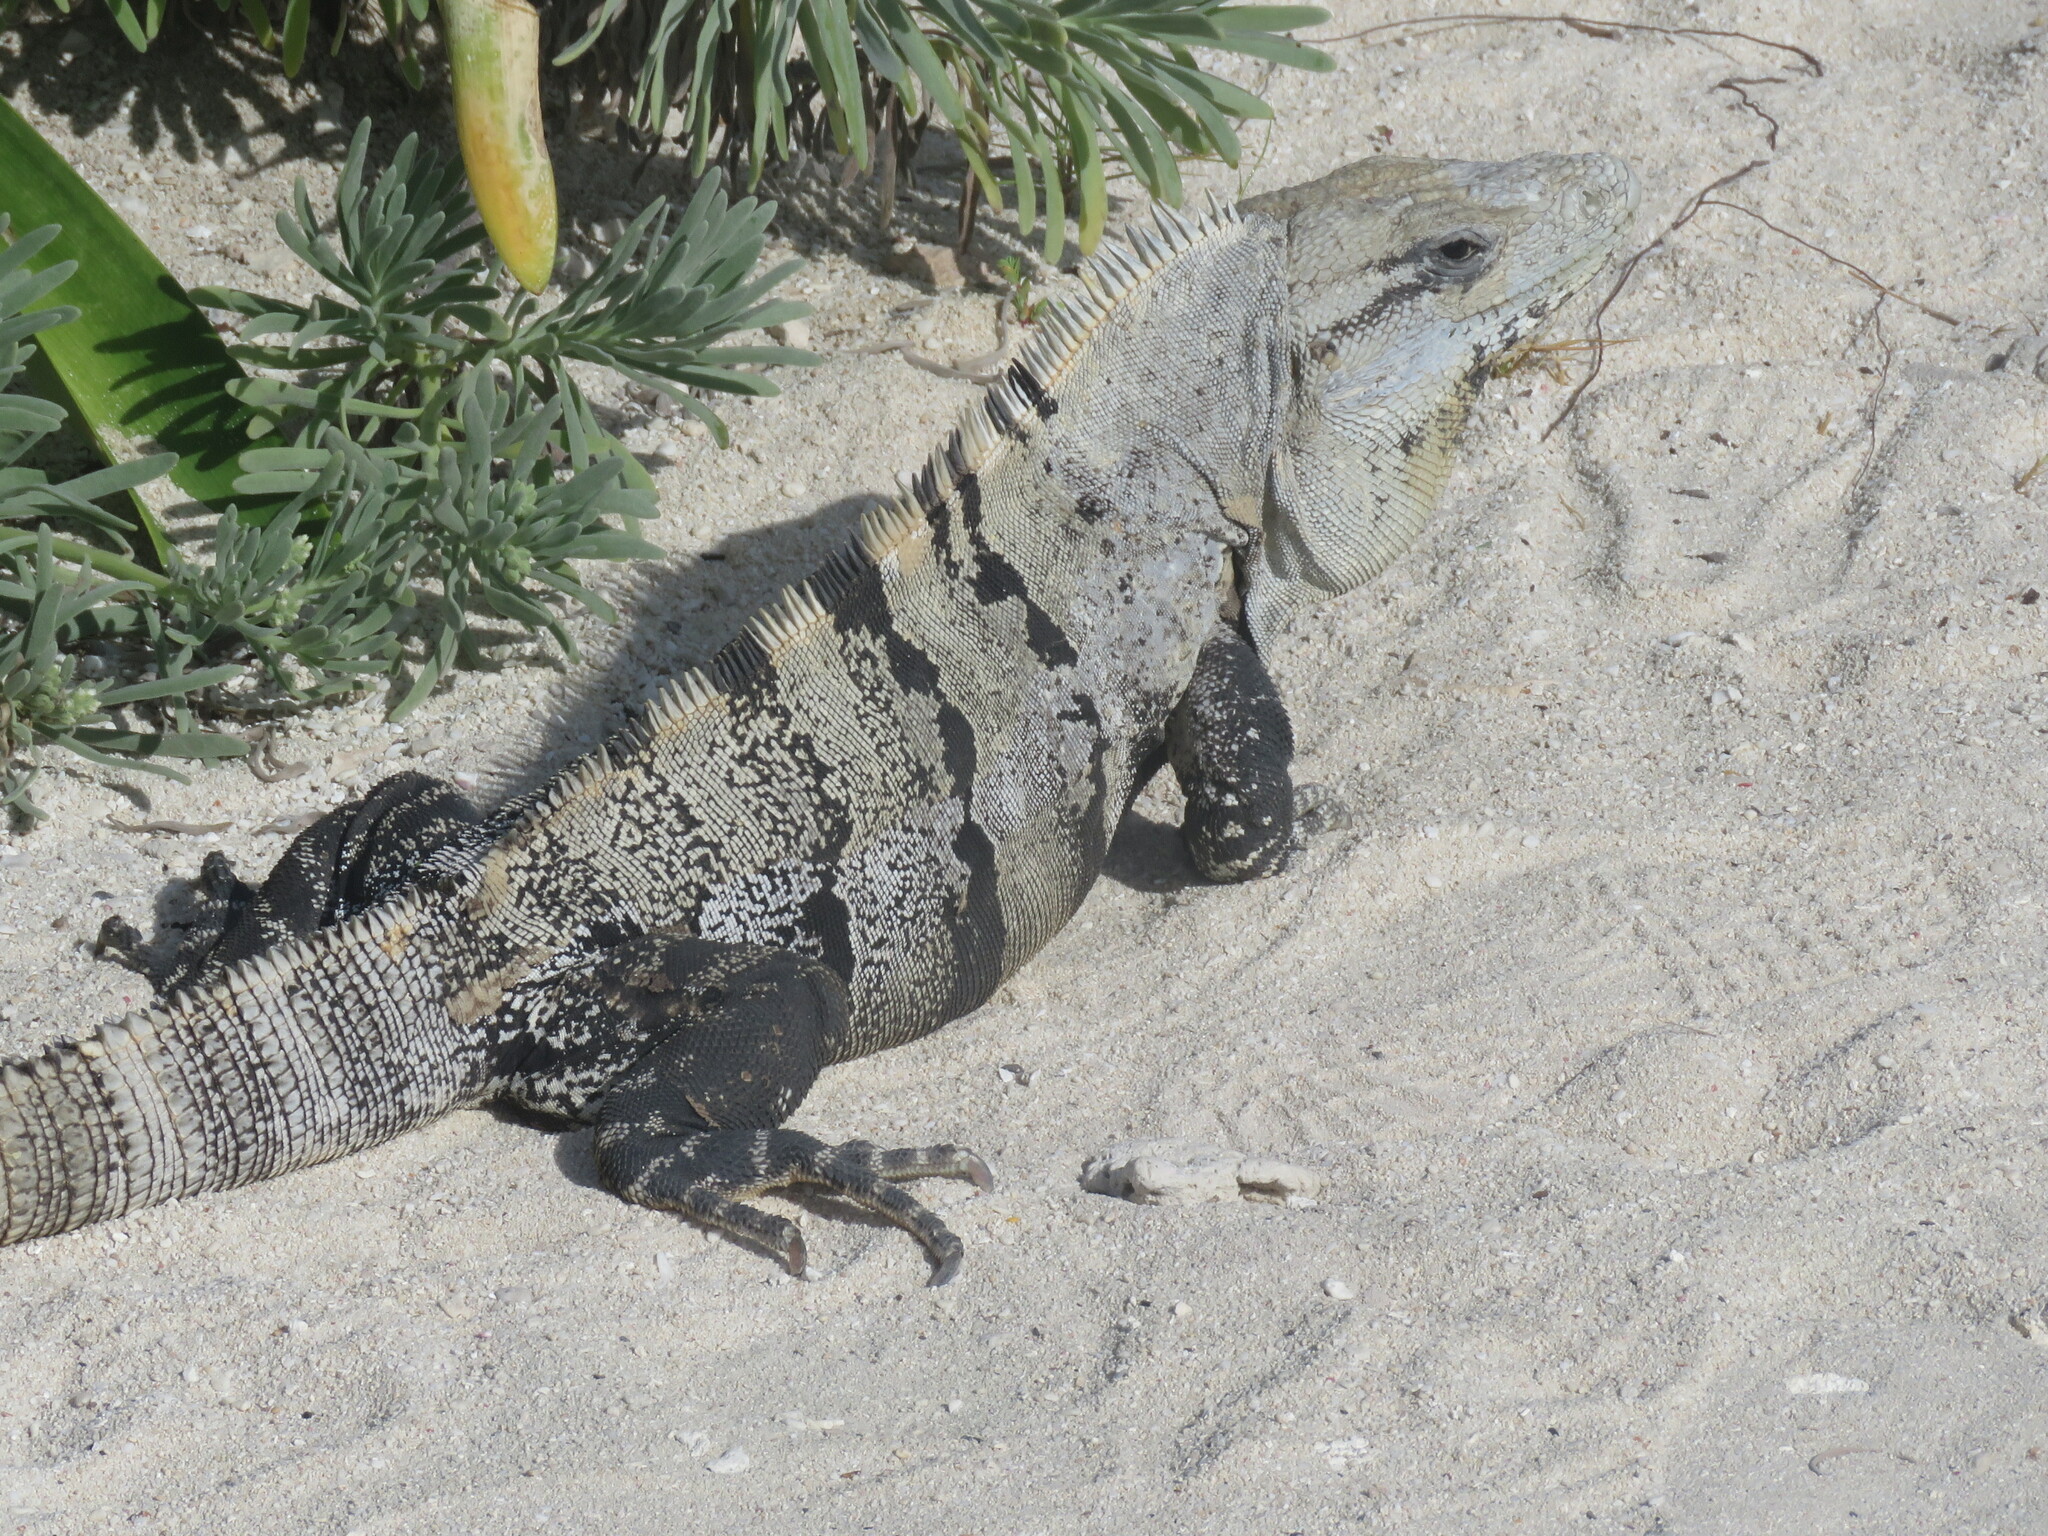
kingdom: Animalia
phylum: Chordata
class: Squamata
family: Iguanidae
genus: Ctenosaura
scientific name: Ctenosaura similis
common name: Black spiny-tailed iguana
